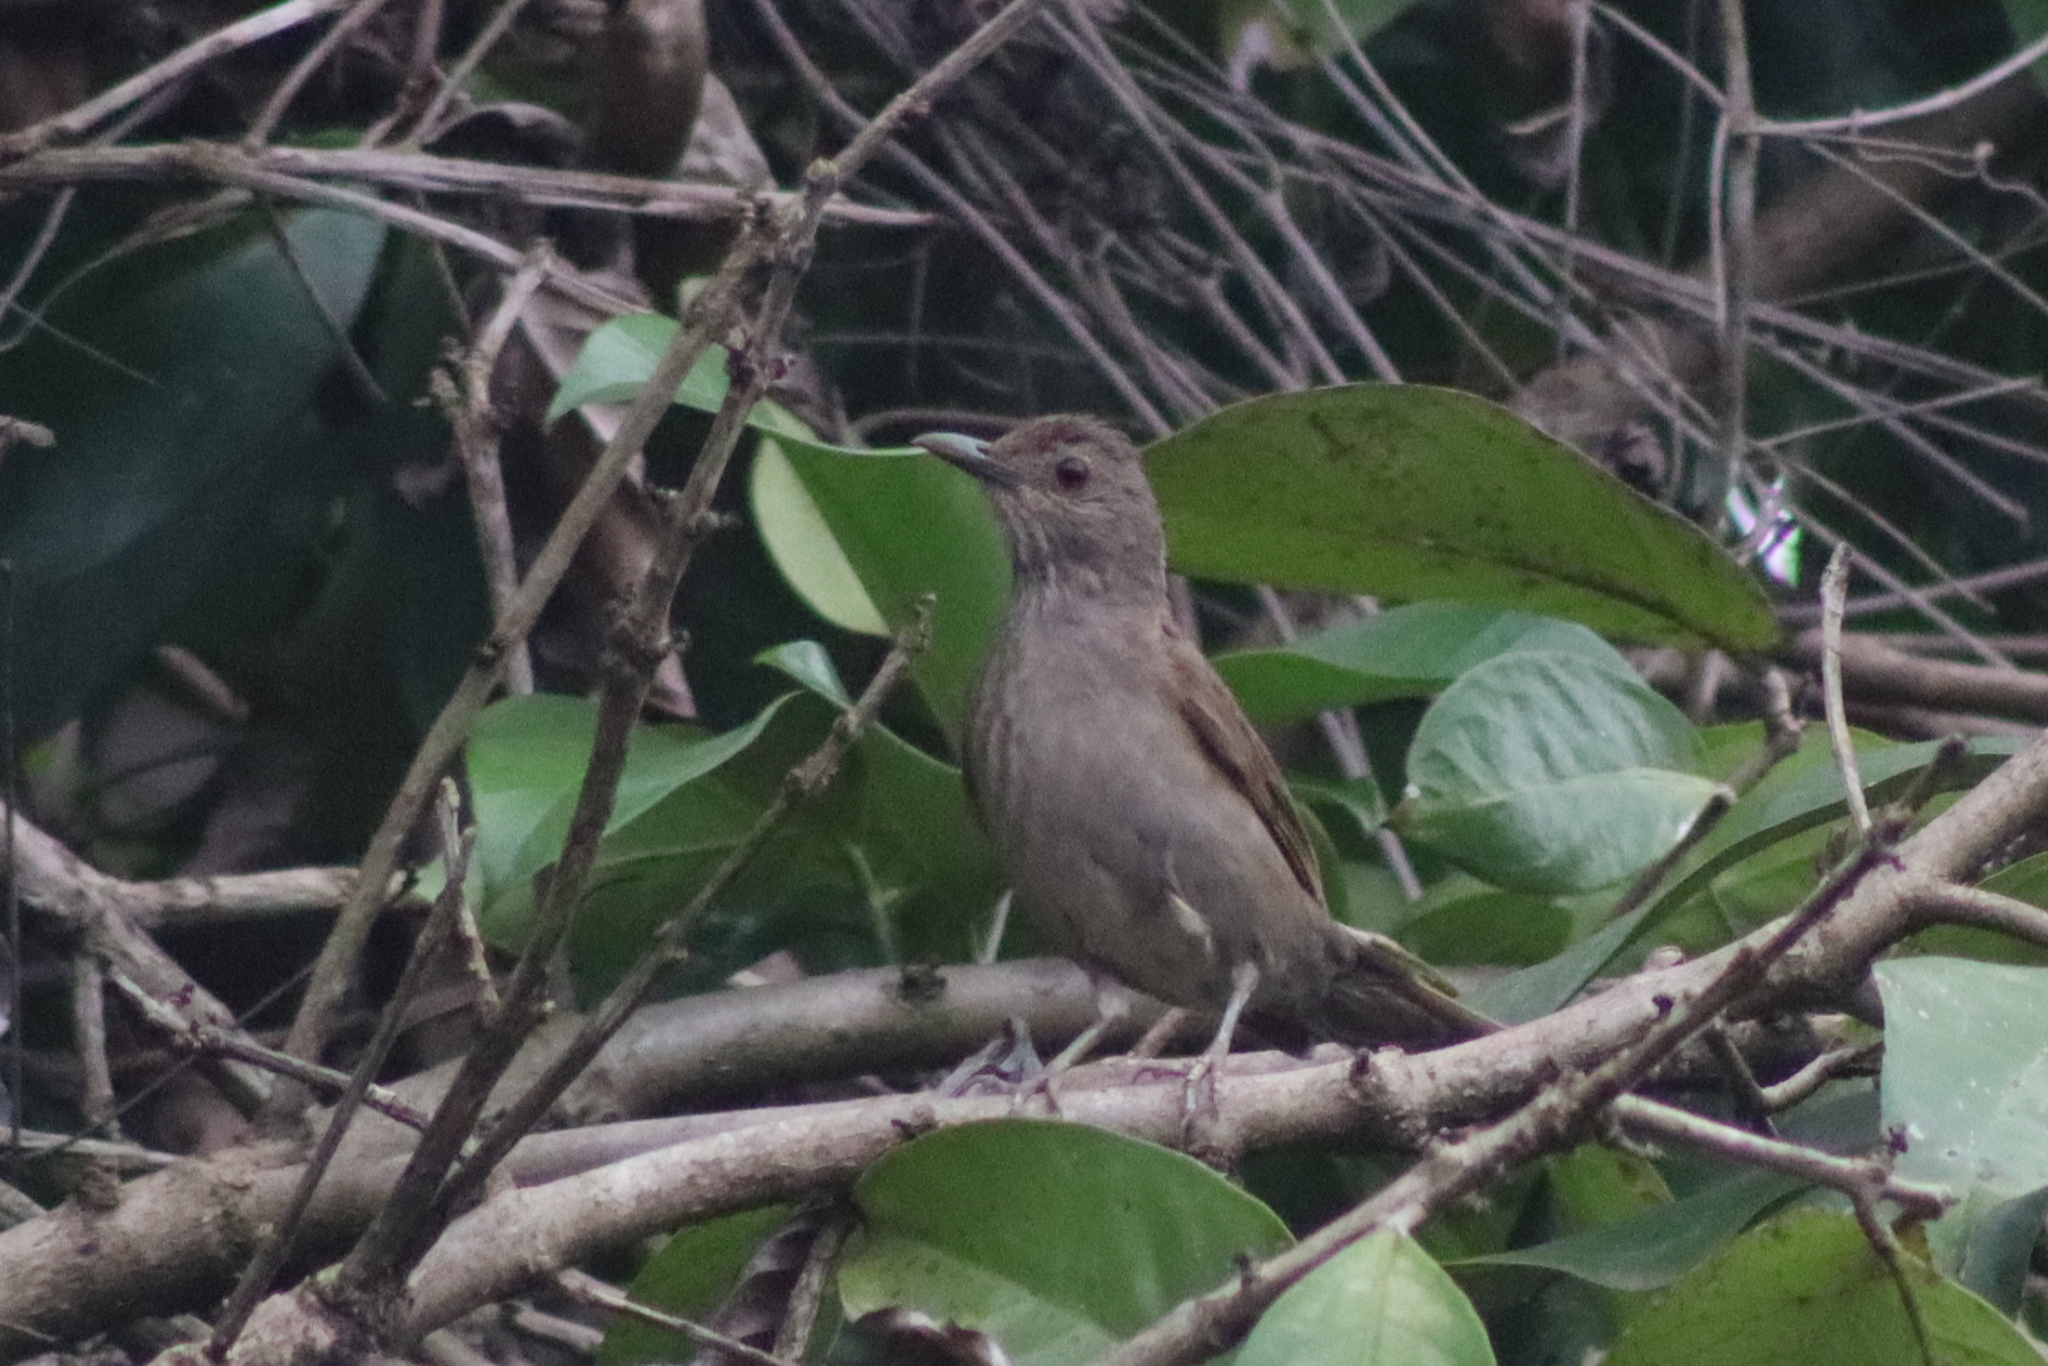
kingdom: Animalia
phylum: Chordata
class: Aves
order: Passeriformes
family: Turdidae
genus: Turdus
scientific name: Turdus leucomelas
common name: Pale-breasted thrush
